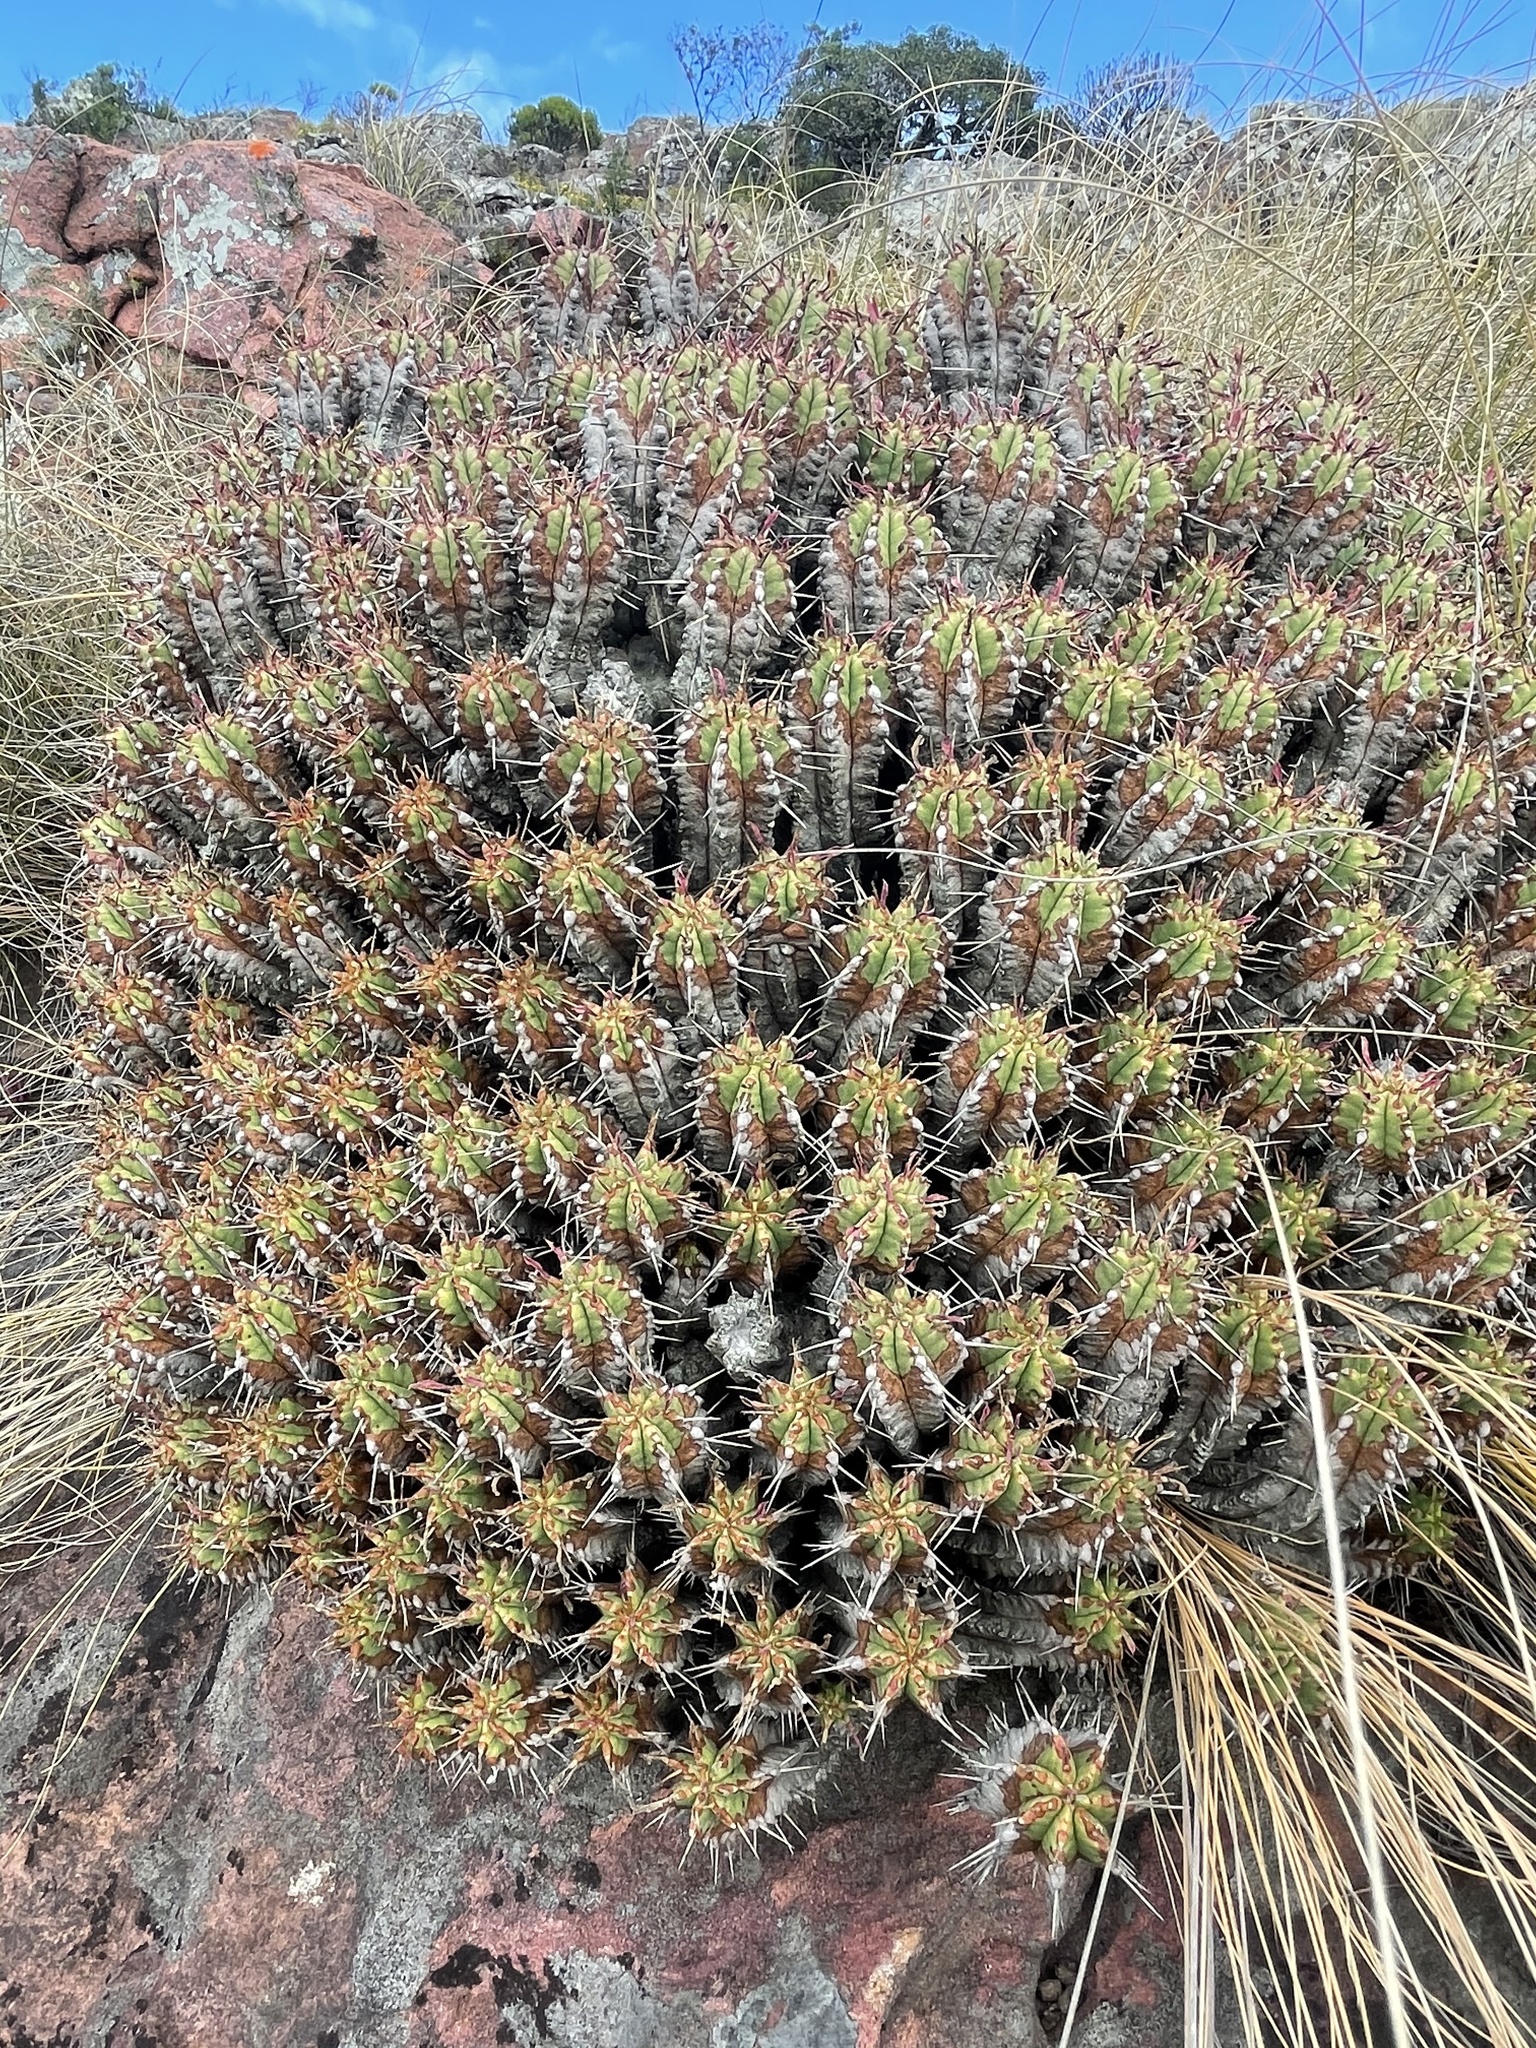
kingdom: Plantae
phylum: Tracheophyta
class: Magnoliopsida
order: Malpighiales
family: Euphorbiaceae
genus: Euphorbia
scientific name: Euphorbia pulvinata
